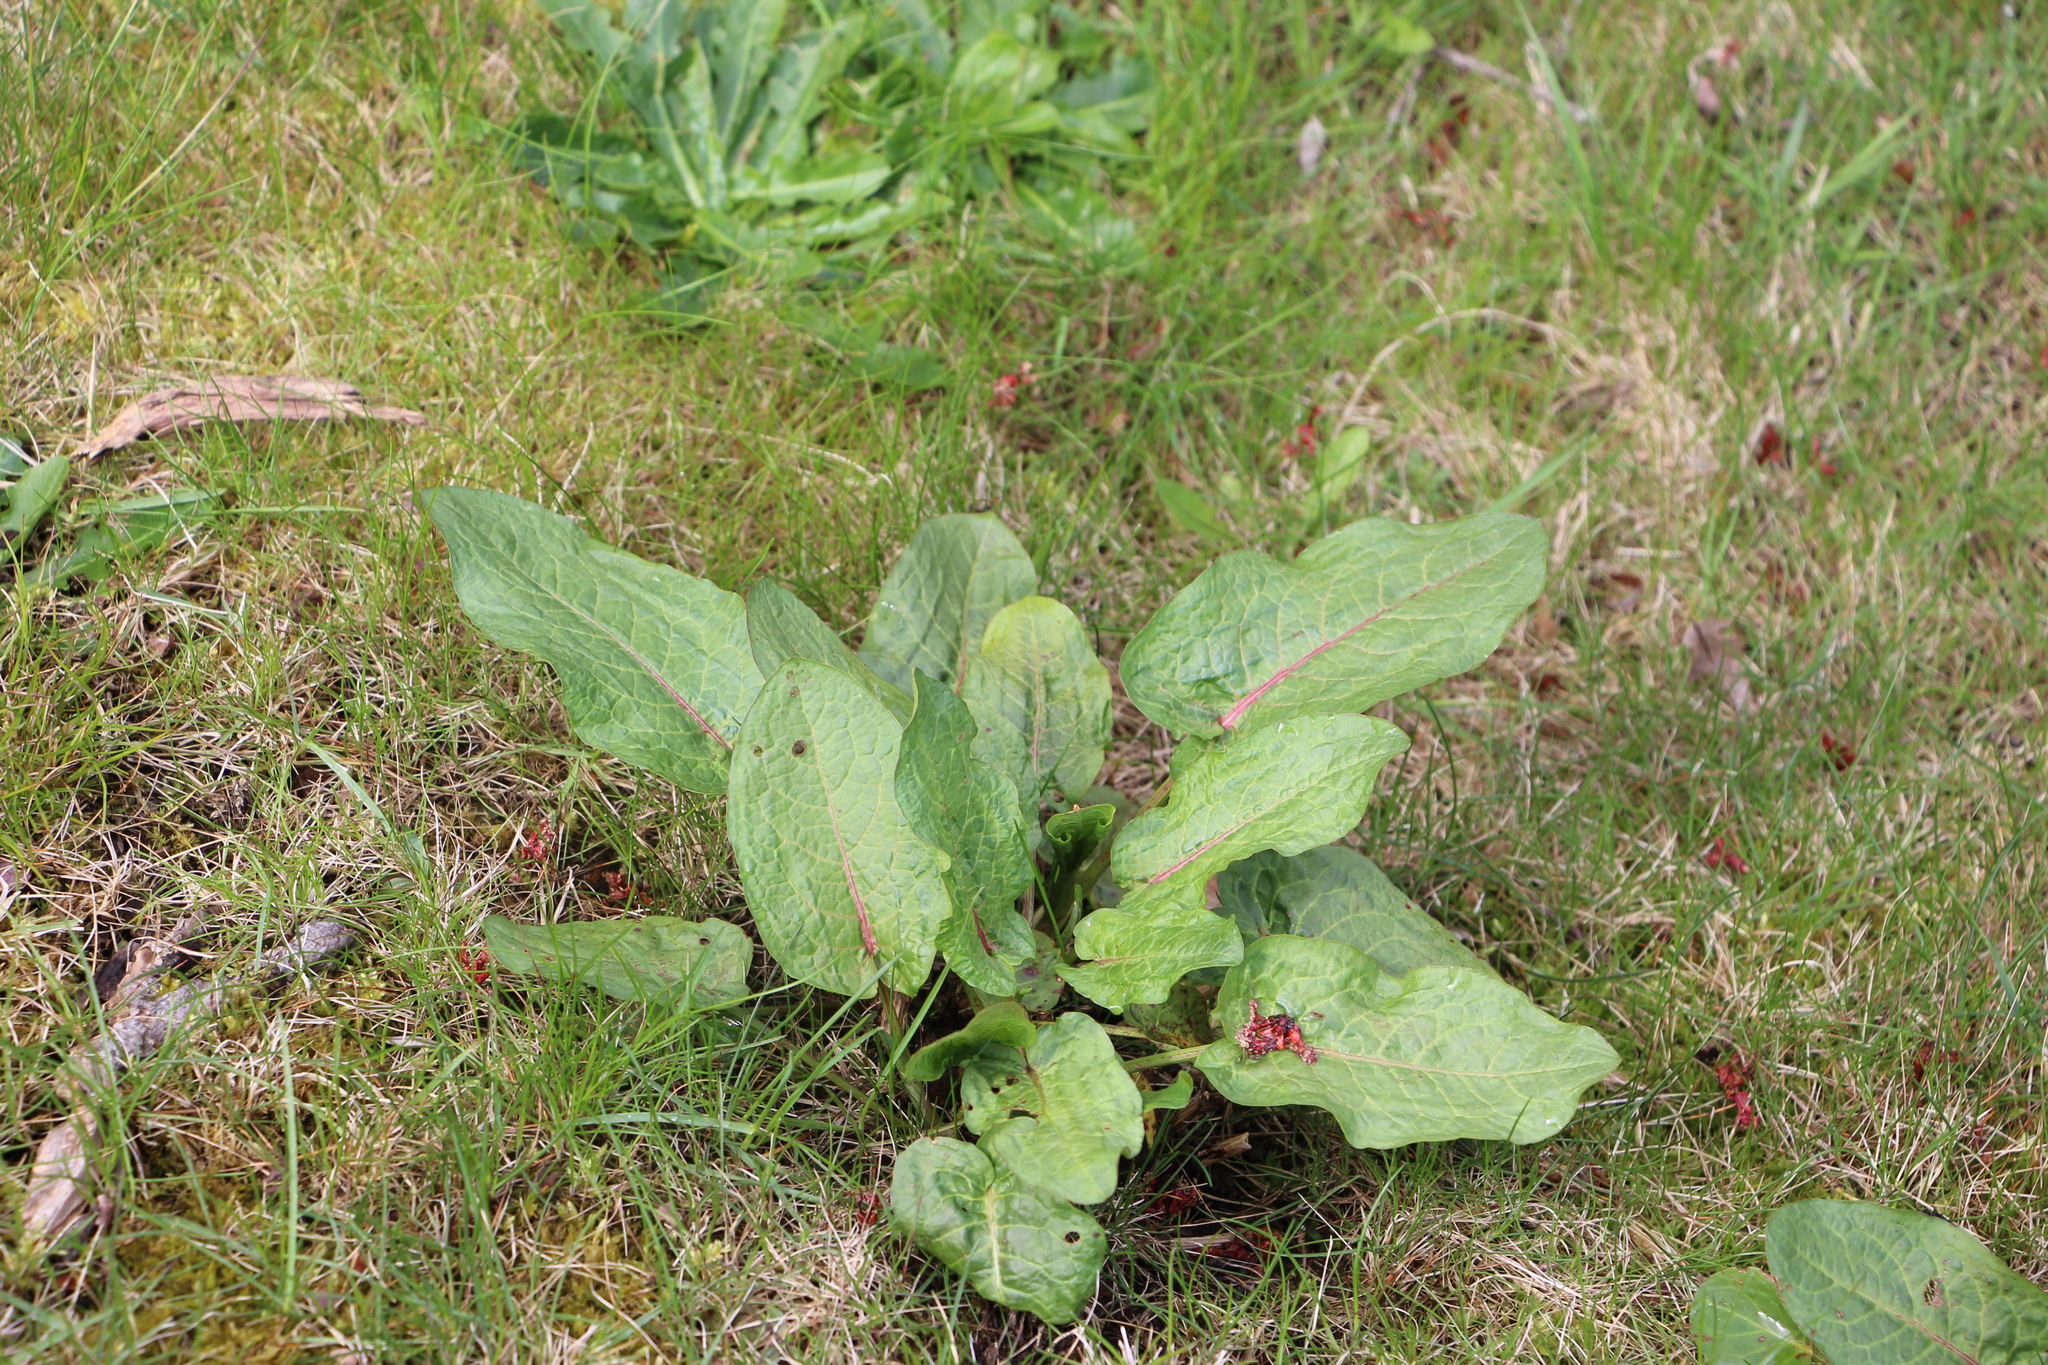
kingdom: Plantae
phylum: Tracheophyta
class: Magnoliopsida
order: Caryophyllales
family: Polygonaceae
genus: Rumex
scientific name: Rumex obtusifolius
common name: Bitter dock
